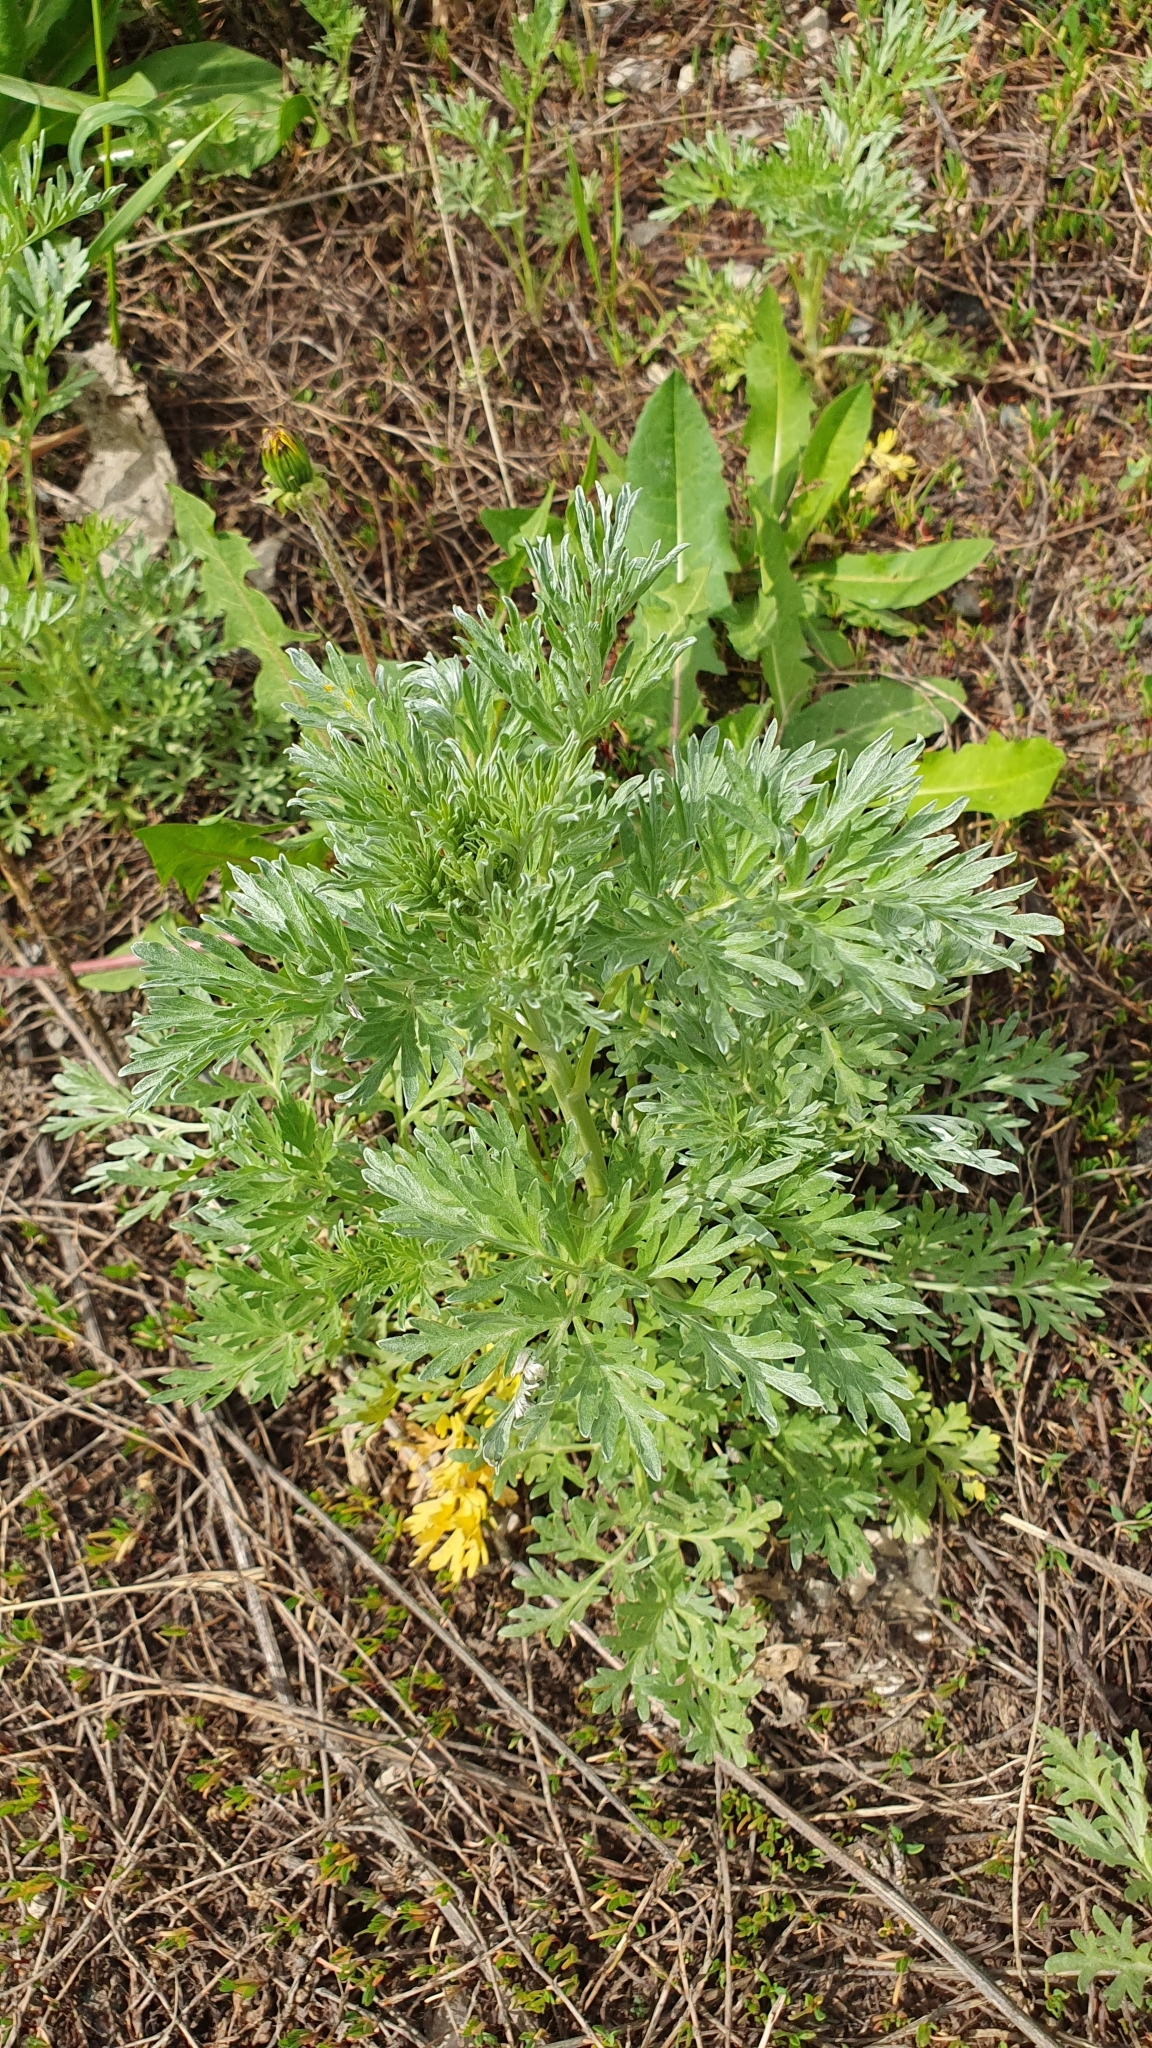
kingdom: Plantae
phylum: Tracheophyta
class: Magnoliopsida
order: Asterales
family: Asteraceae
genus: Artemisia
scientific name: Artemisia absinthium
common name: Wormwood
